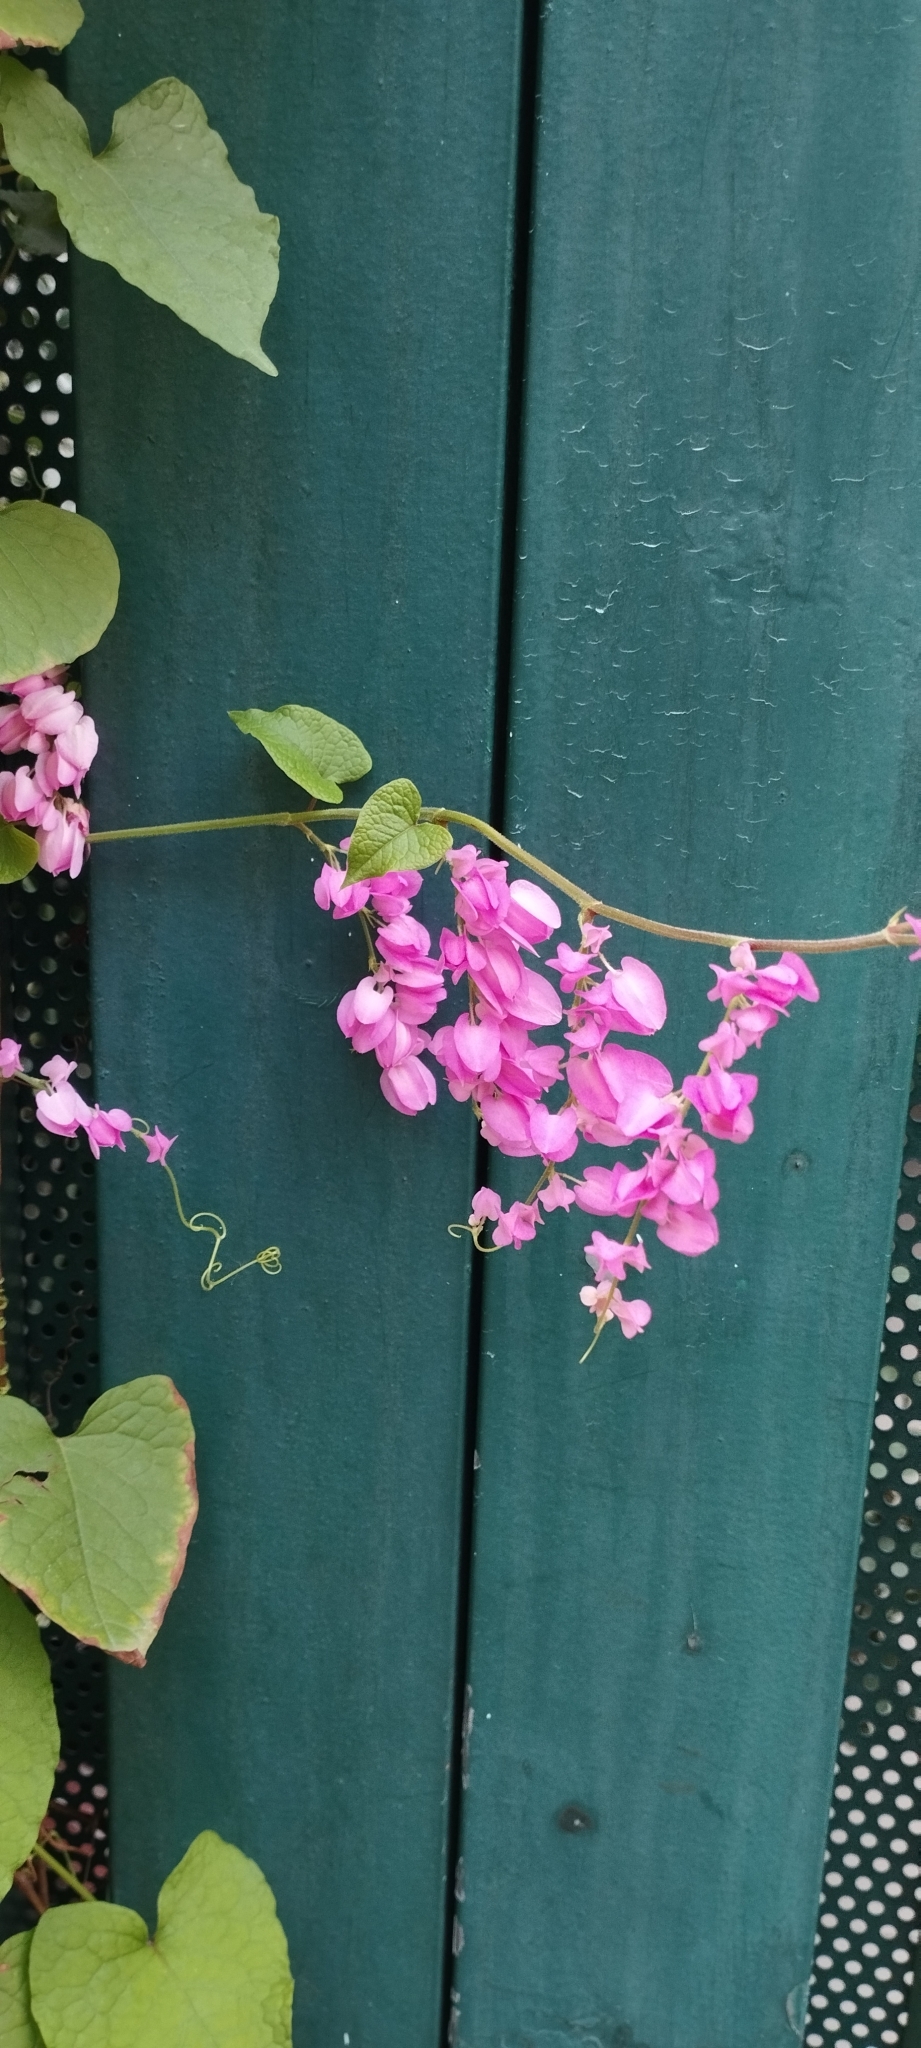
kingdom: Plantae
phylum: Tracheophyta
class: Magnoliopsida
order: Caryophyllales
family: Polygonaceae
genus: Antigonon
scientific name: Antigonon leptopus
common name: Coral vine
